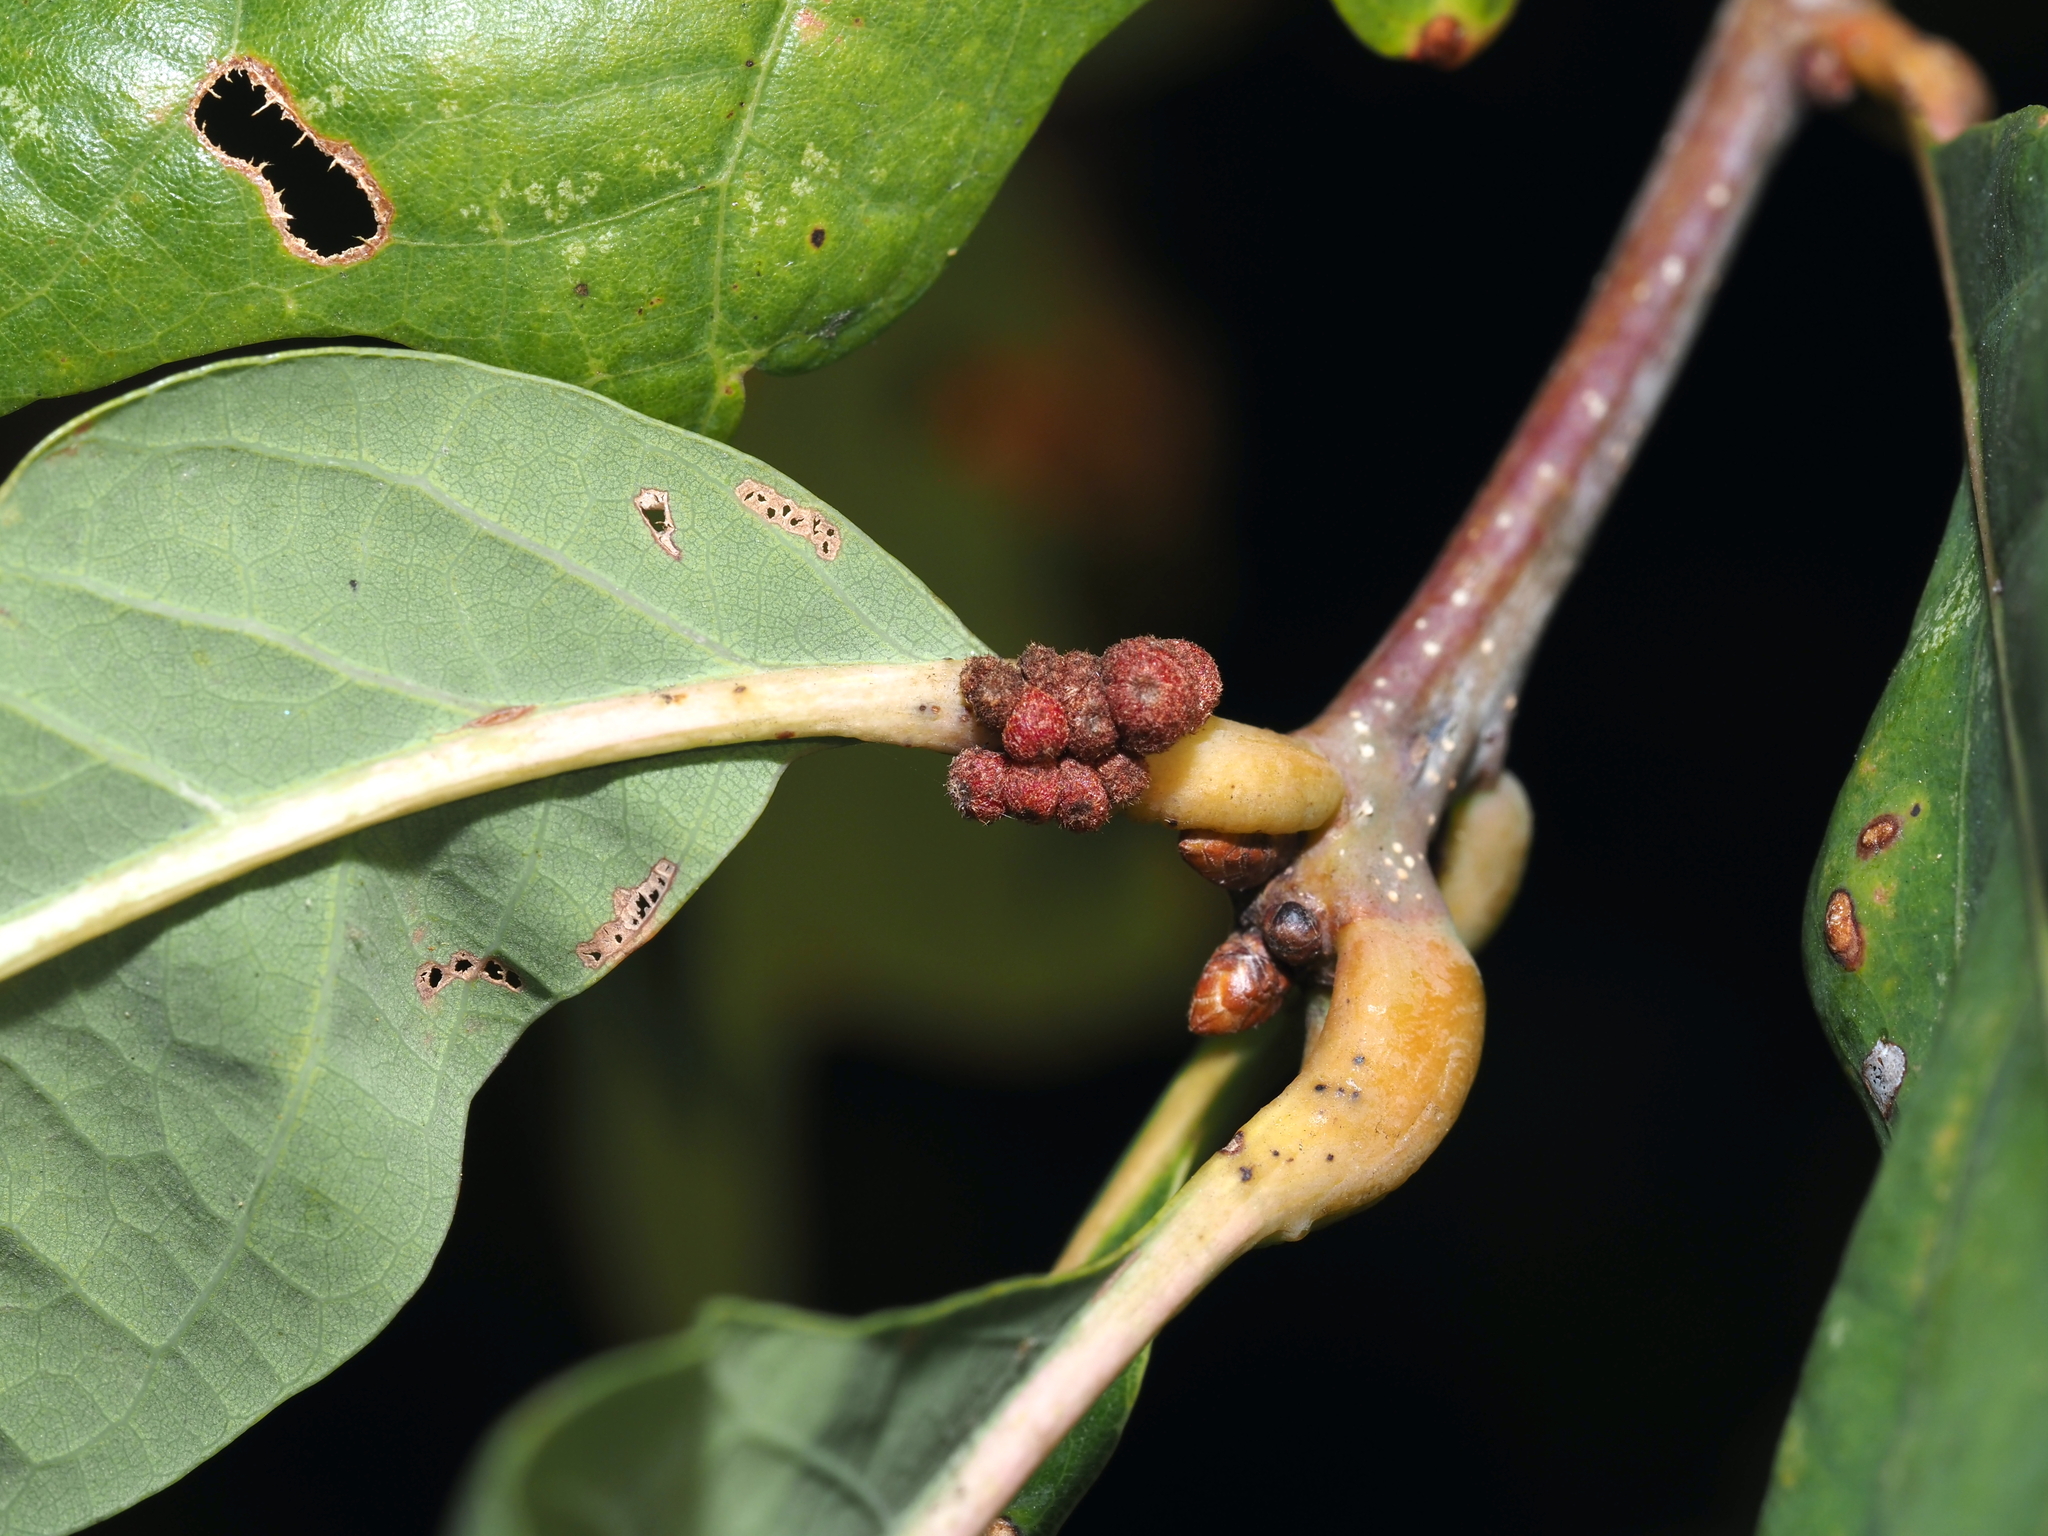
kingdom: Animalia
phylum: Arthropoda
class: Insecta
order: Hymenoptera
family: Cynipidae
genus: Andricus
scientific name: Andricus
